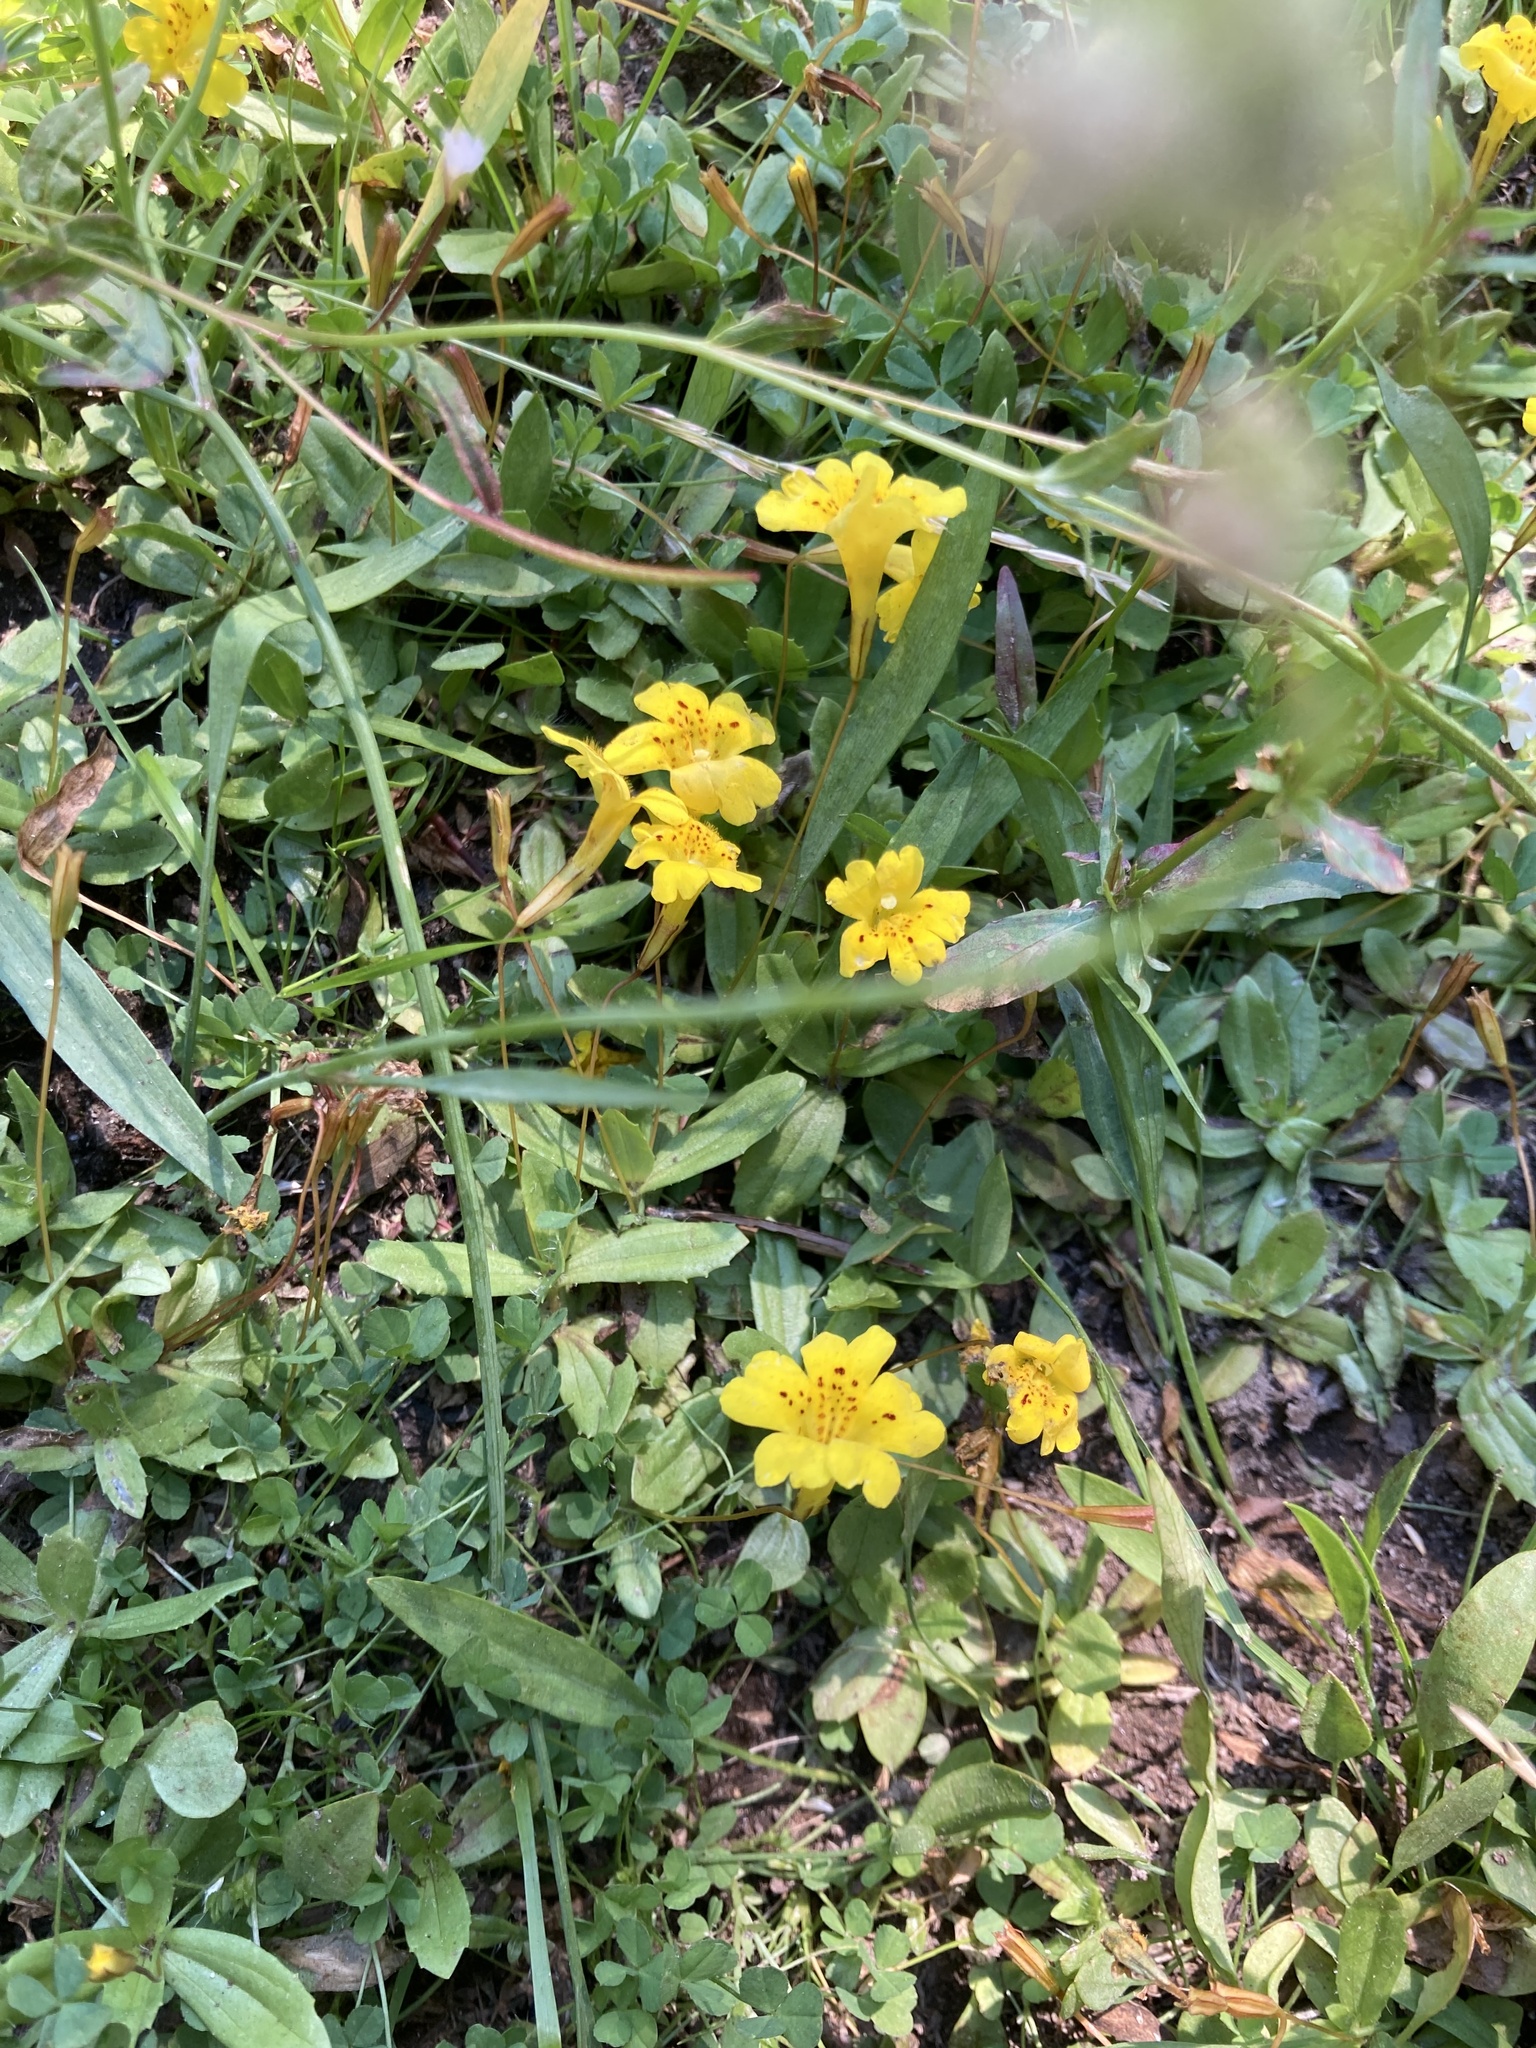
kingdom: Plantae
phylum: Tracheophyta
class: Magnoliopsida
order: Lamiales
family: Phrymaceae
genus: Erythranthe
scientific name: Erythranthe primuloides
